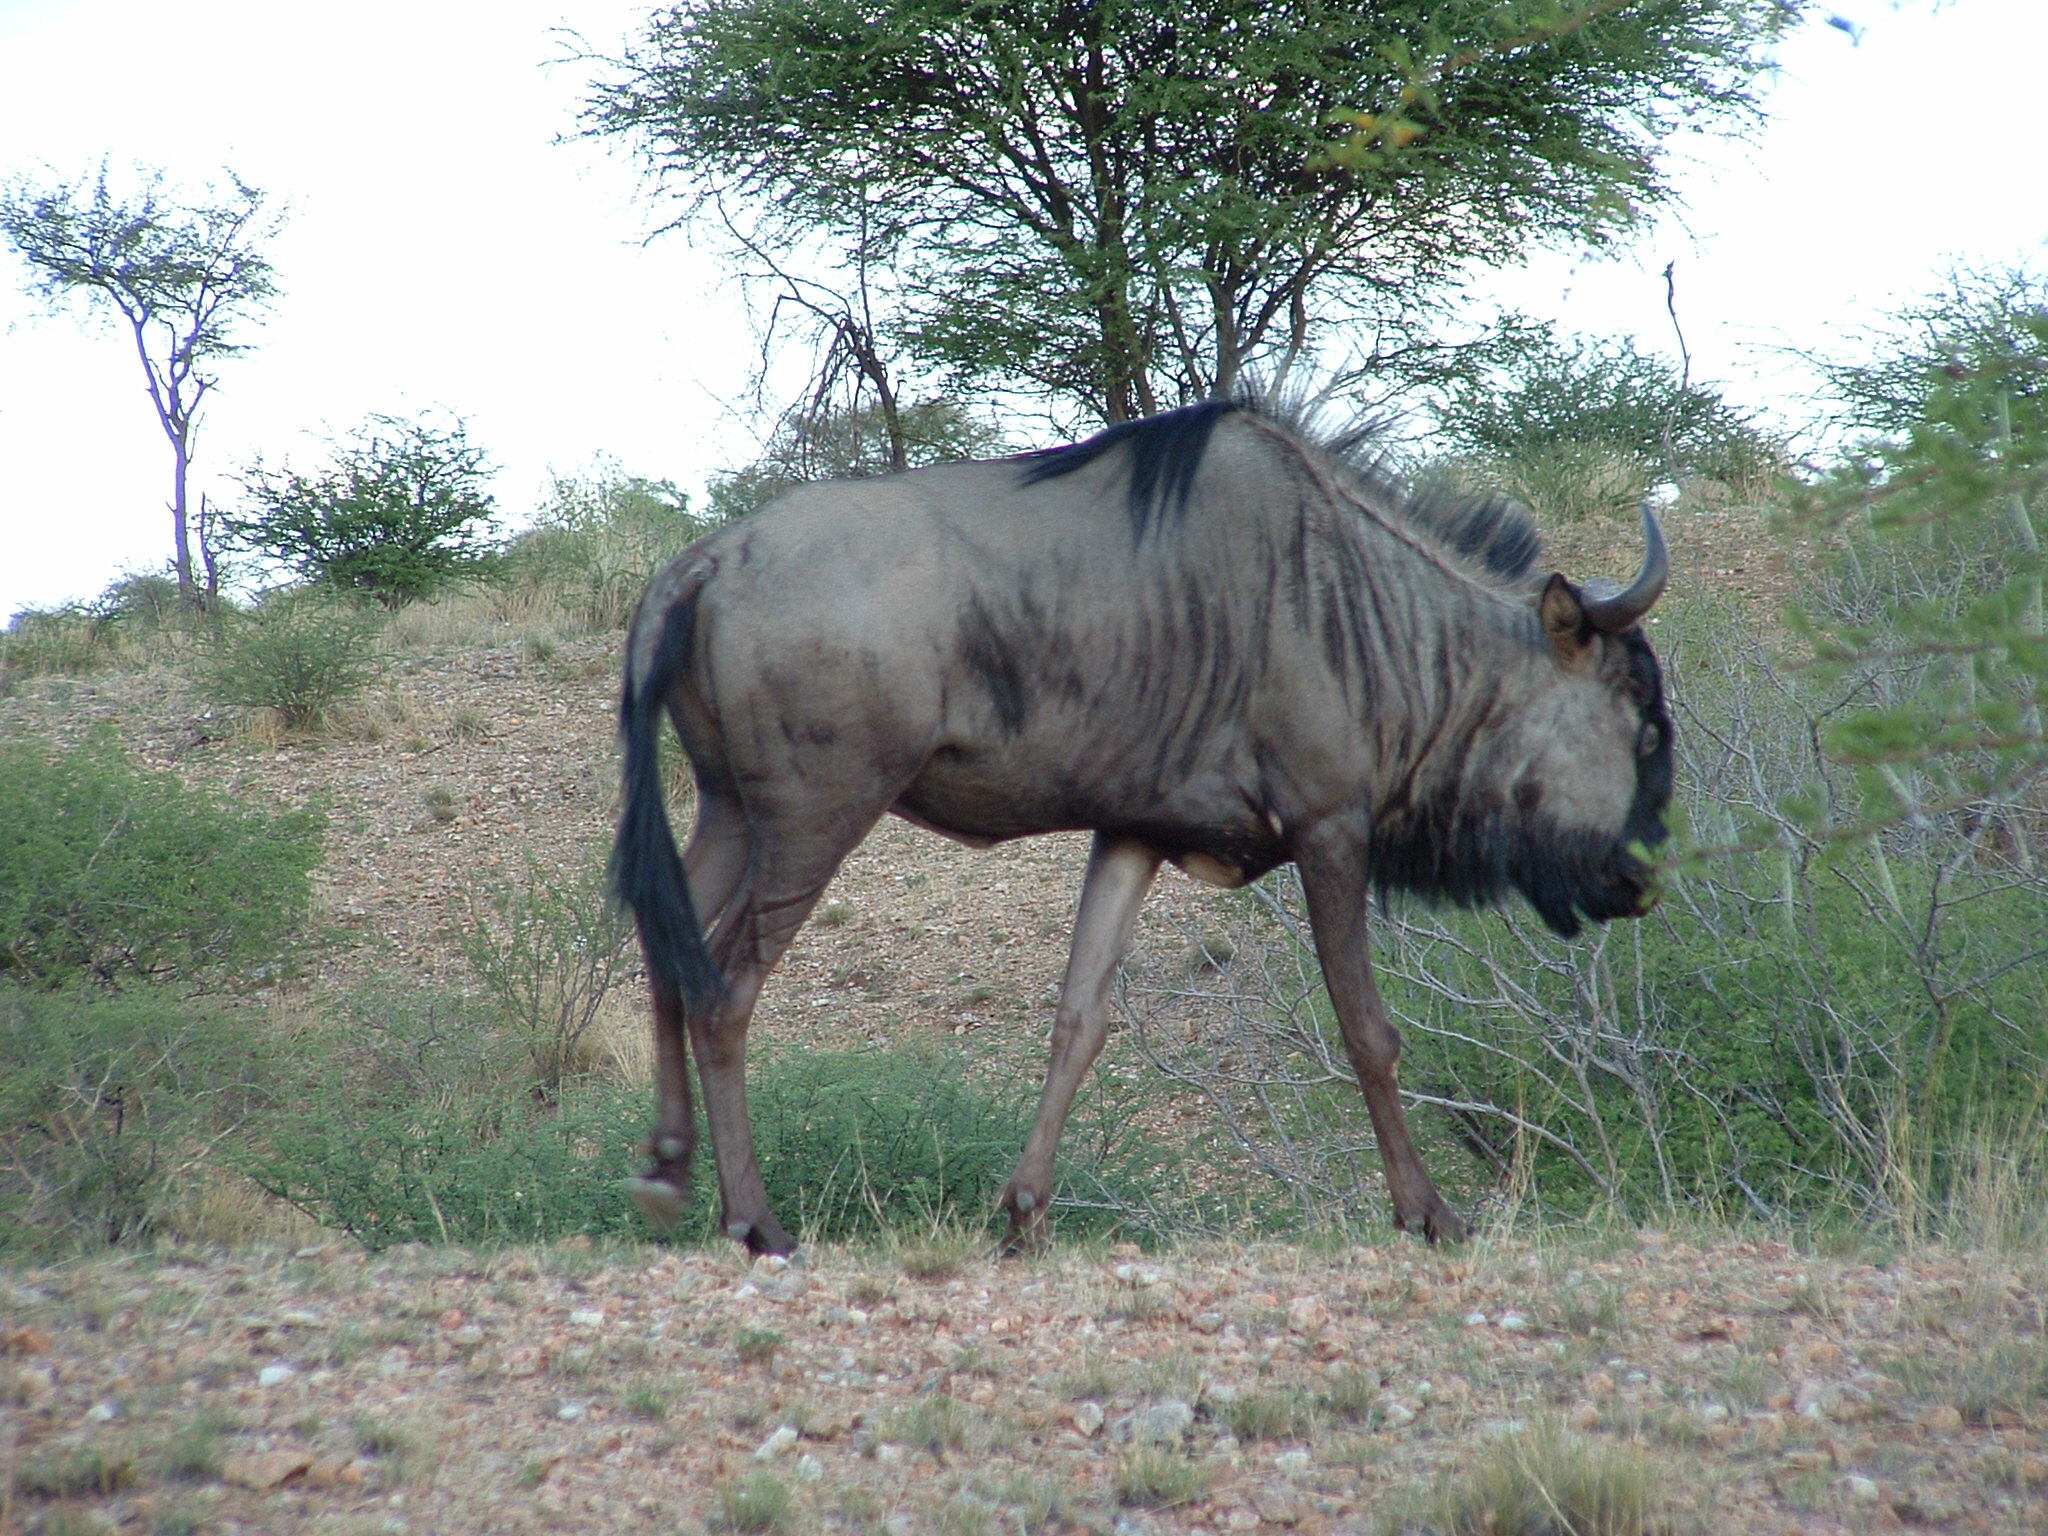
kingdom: Animalia
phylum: Chordata
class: Mammalia
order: Artiodactyla
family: Bovidae
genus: Connochaetes
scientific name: Connochaetes taurinus
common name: Blue wildebeest
